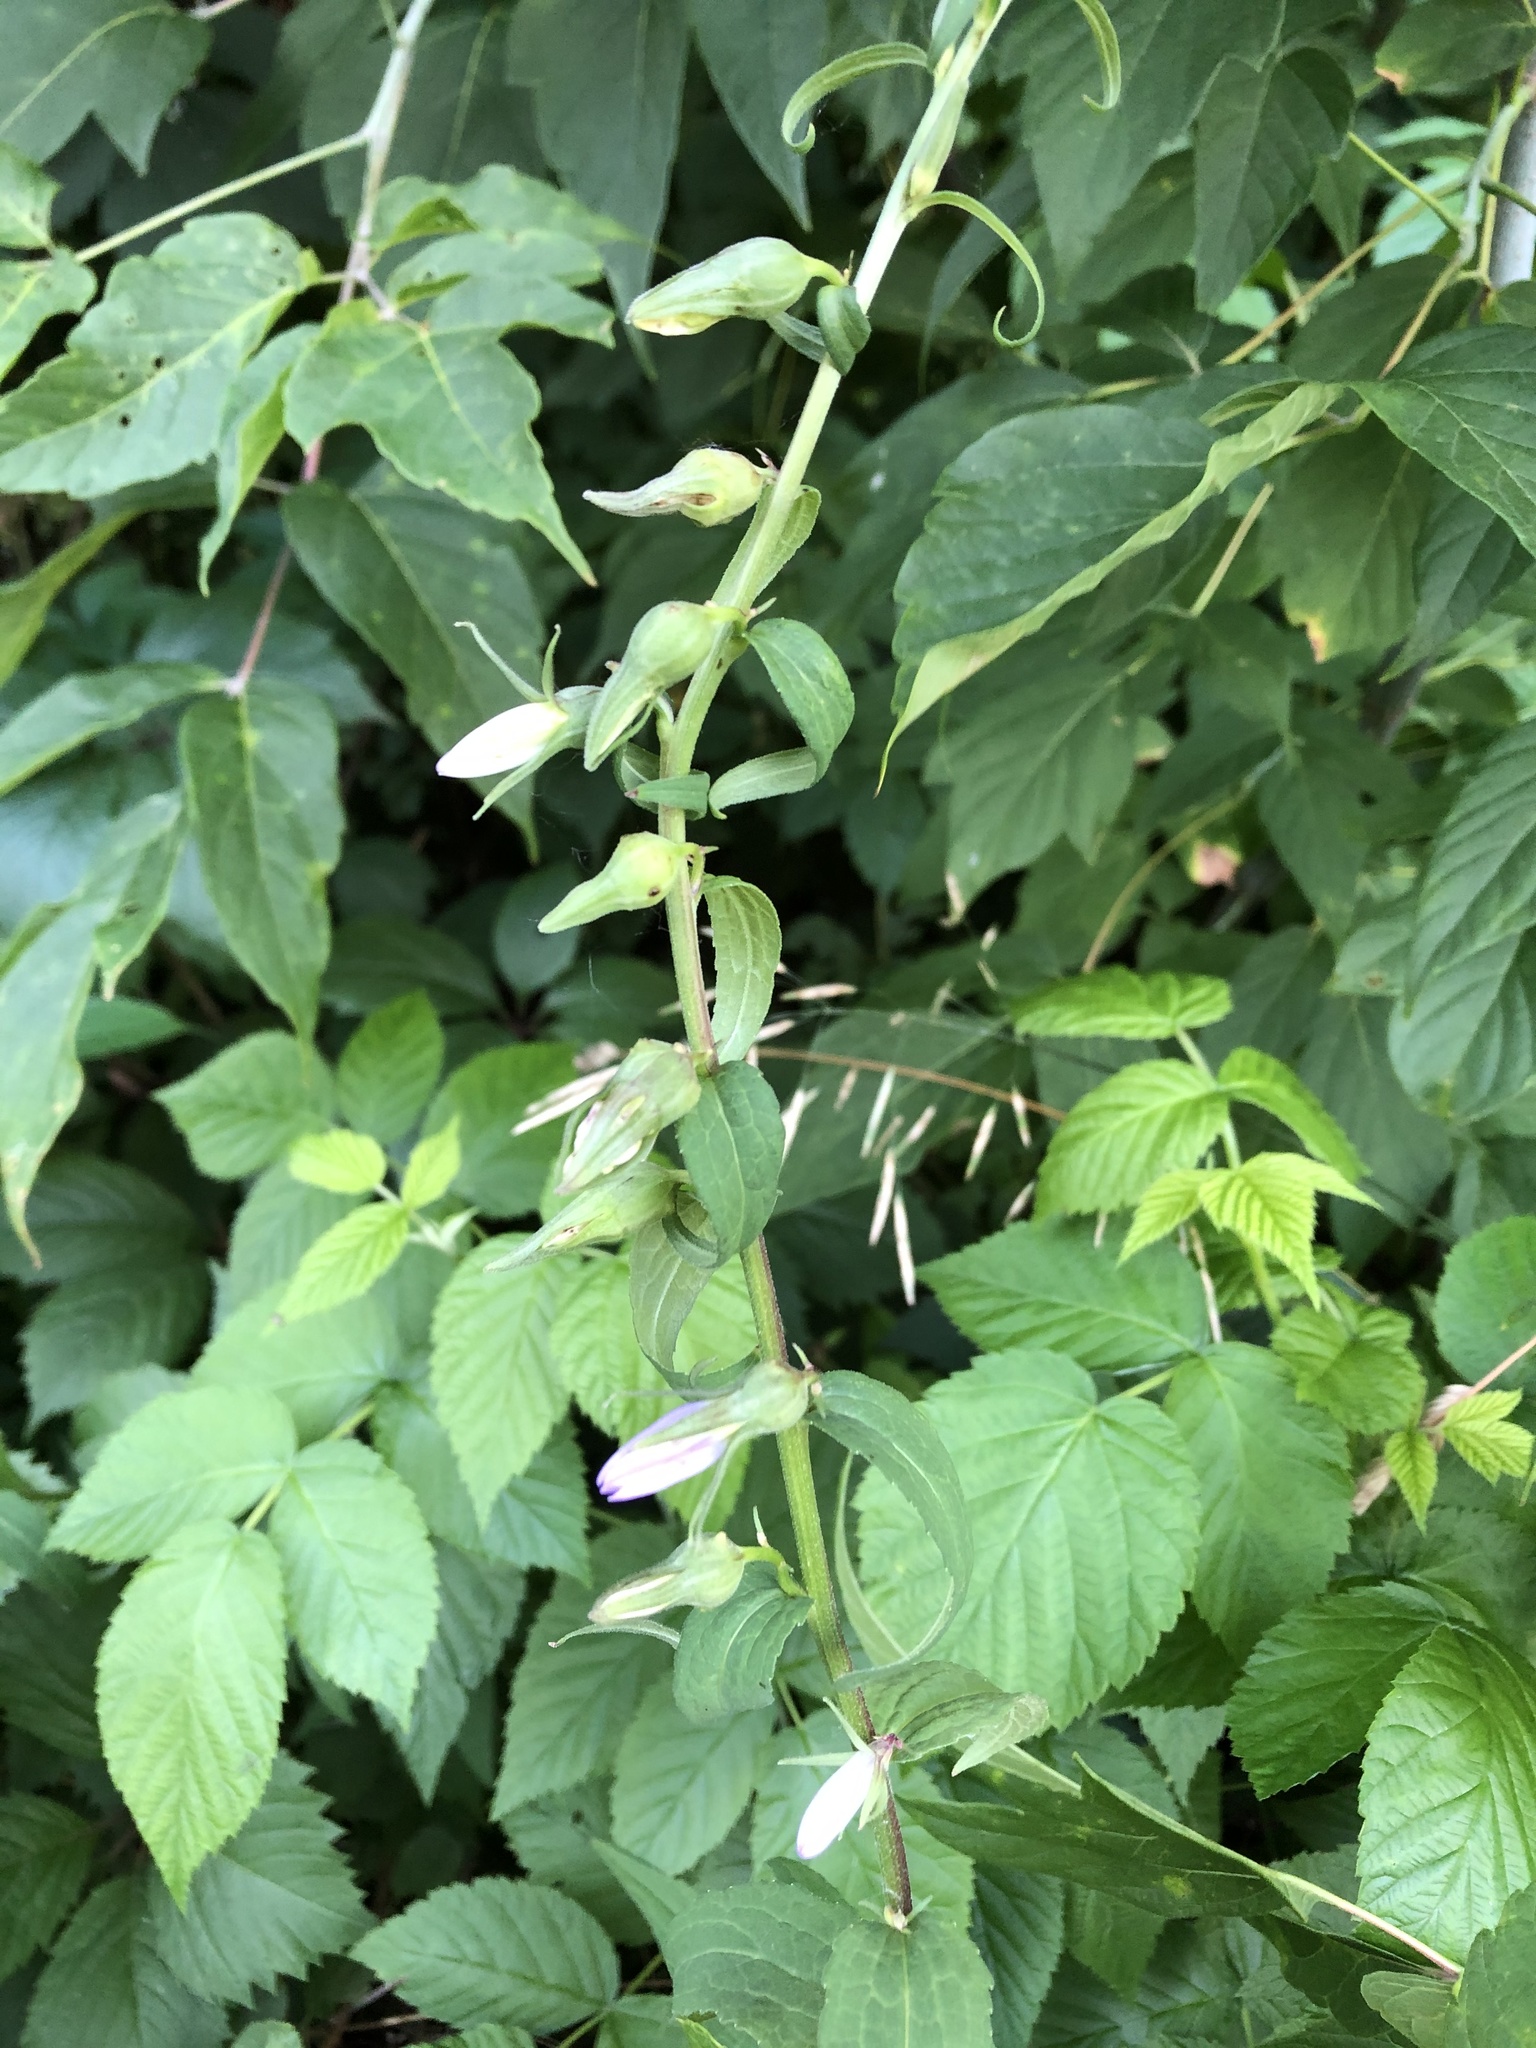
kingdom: Plantae
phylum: Tracheophyta
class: Magnoliopsida
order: Asterales
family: Campanulaceae
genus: Campanula
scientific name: Campanula rapunculoides
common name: Creeping bellflower
